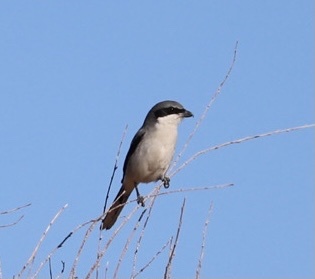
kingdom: Animalia
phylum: Chordata
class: Aves
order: Passeriformes
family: Laniidae
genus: Lanius
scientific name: Lanius ludovicianus
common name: Loggerhead shrike
